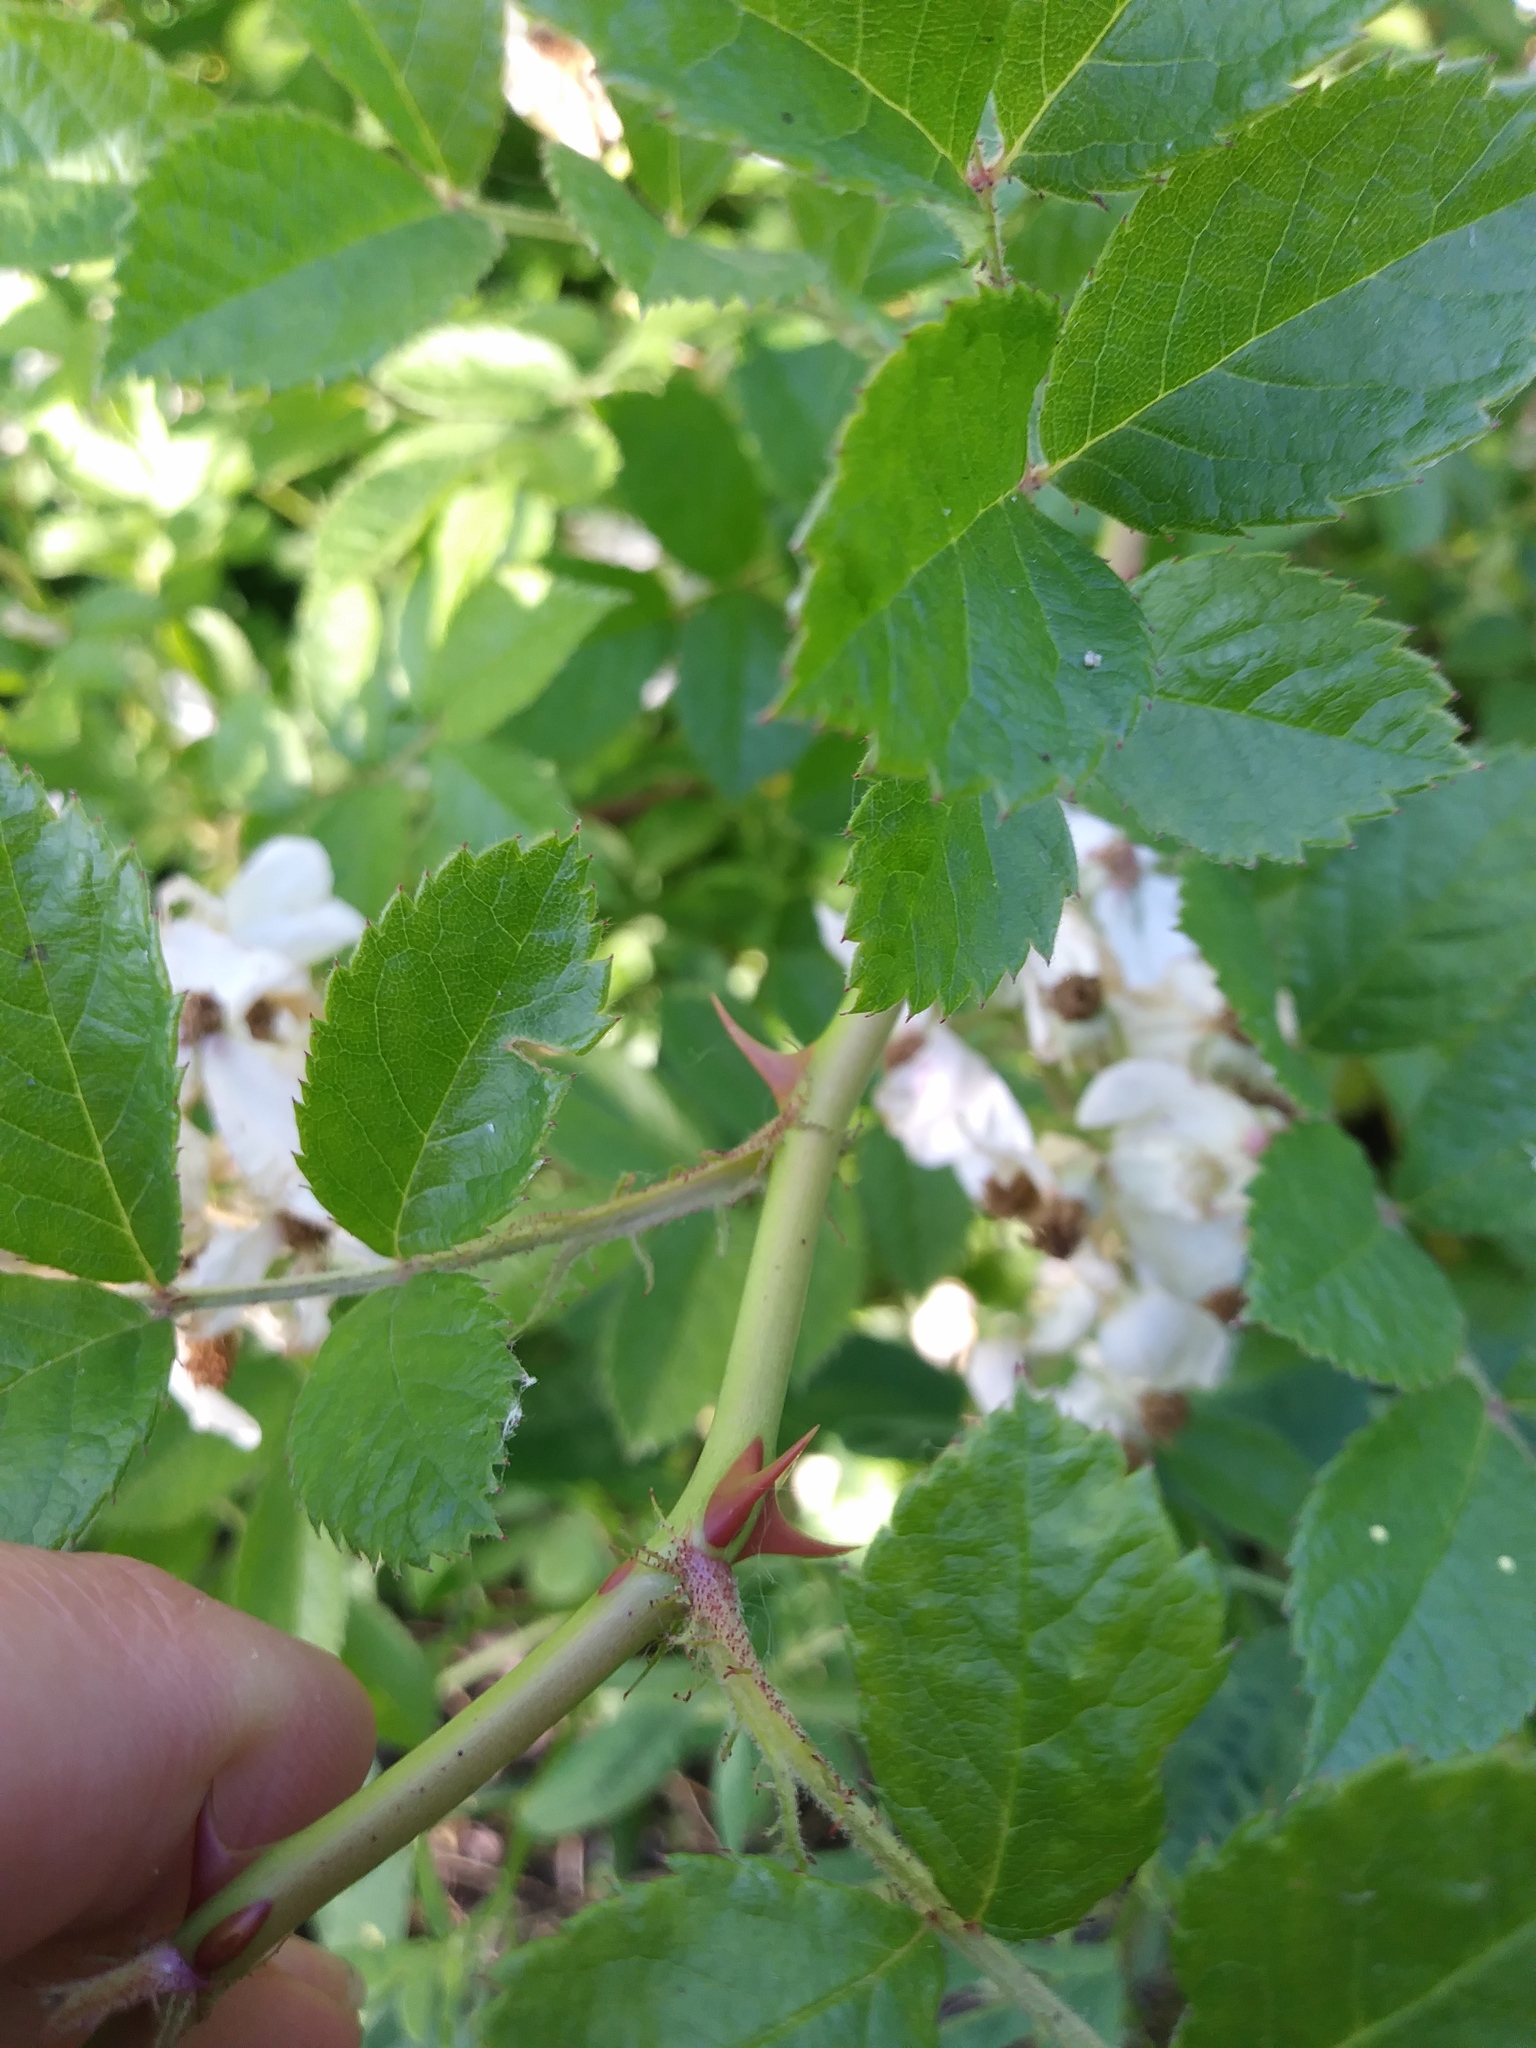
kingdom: Plantae
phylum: Tracheophyta
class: Magnoliopsida
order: Rosales
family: Rosaceae
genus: Rosa
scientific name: Rosa multiflora
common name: Multiflora rose
